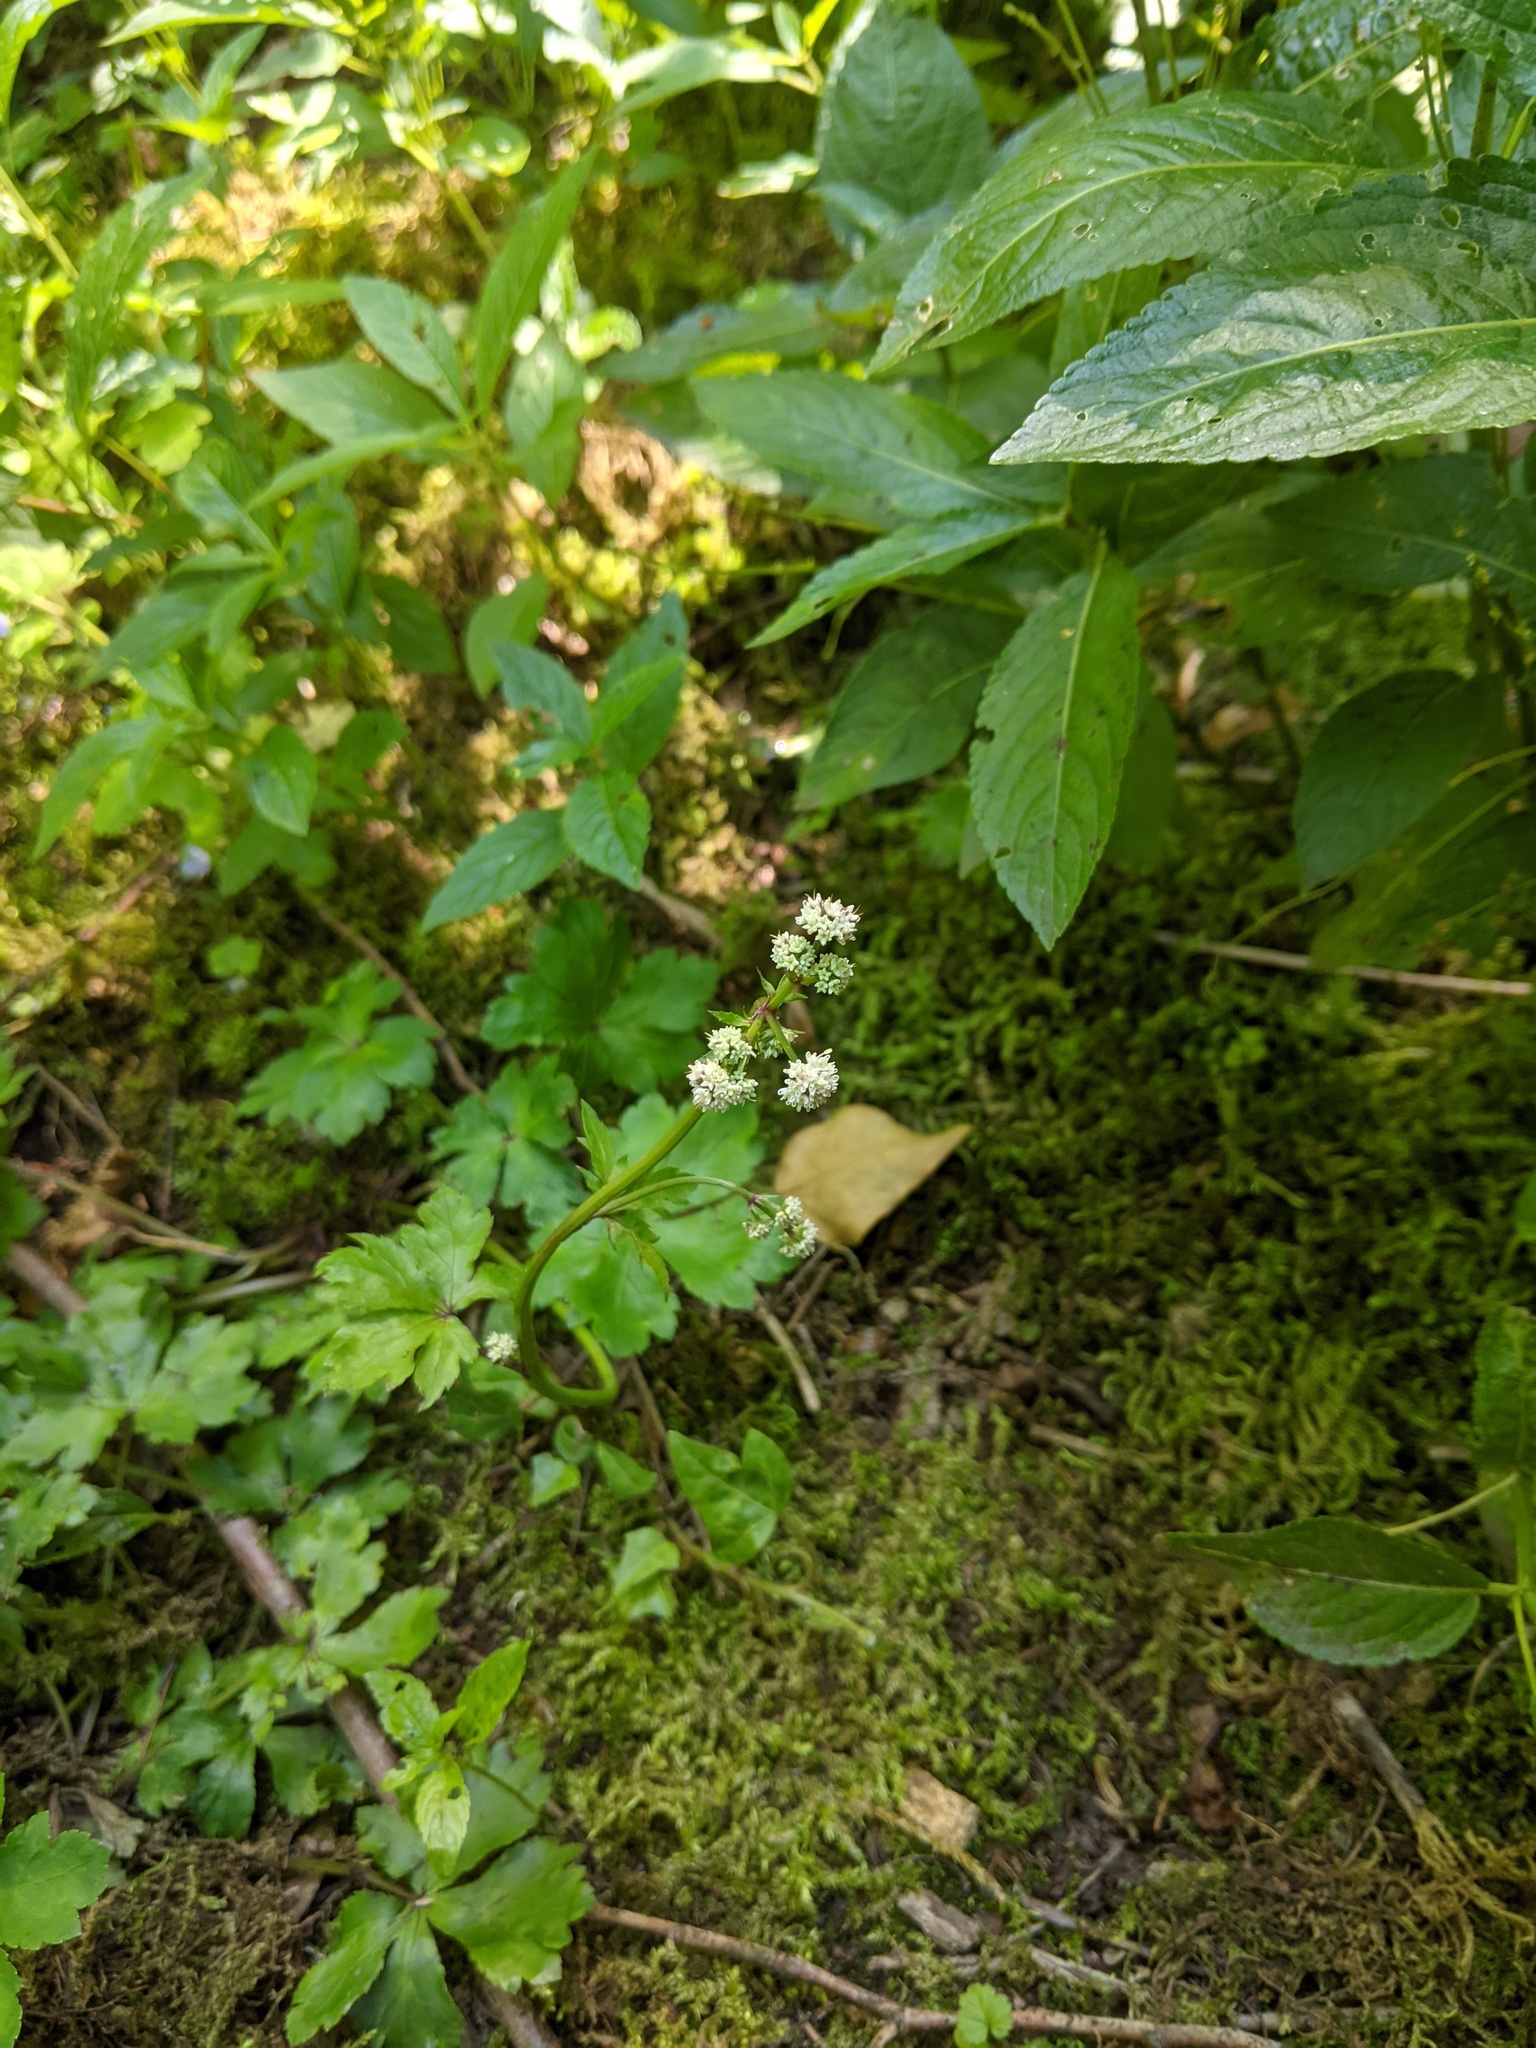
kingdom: Plantae
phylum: Tracheophyta
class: Magnoliopsida
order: Apiales
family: Apiaceae
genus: Sanicula
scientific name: Sanicula europaea
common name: Sanicle
